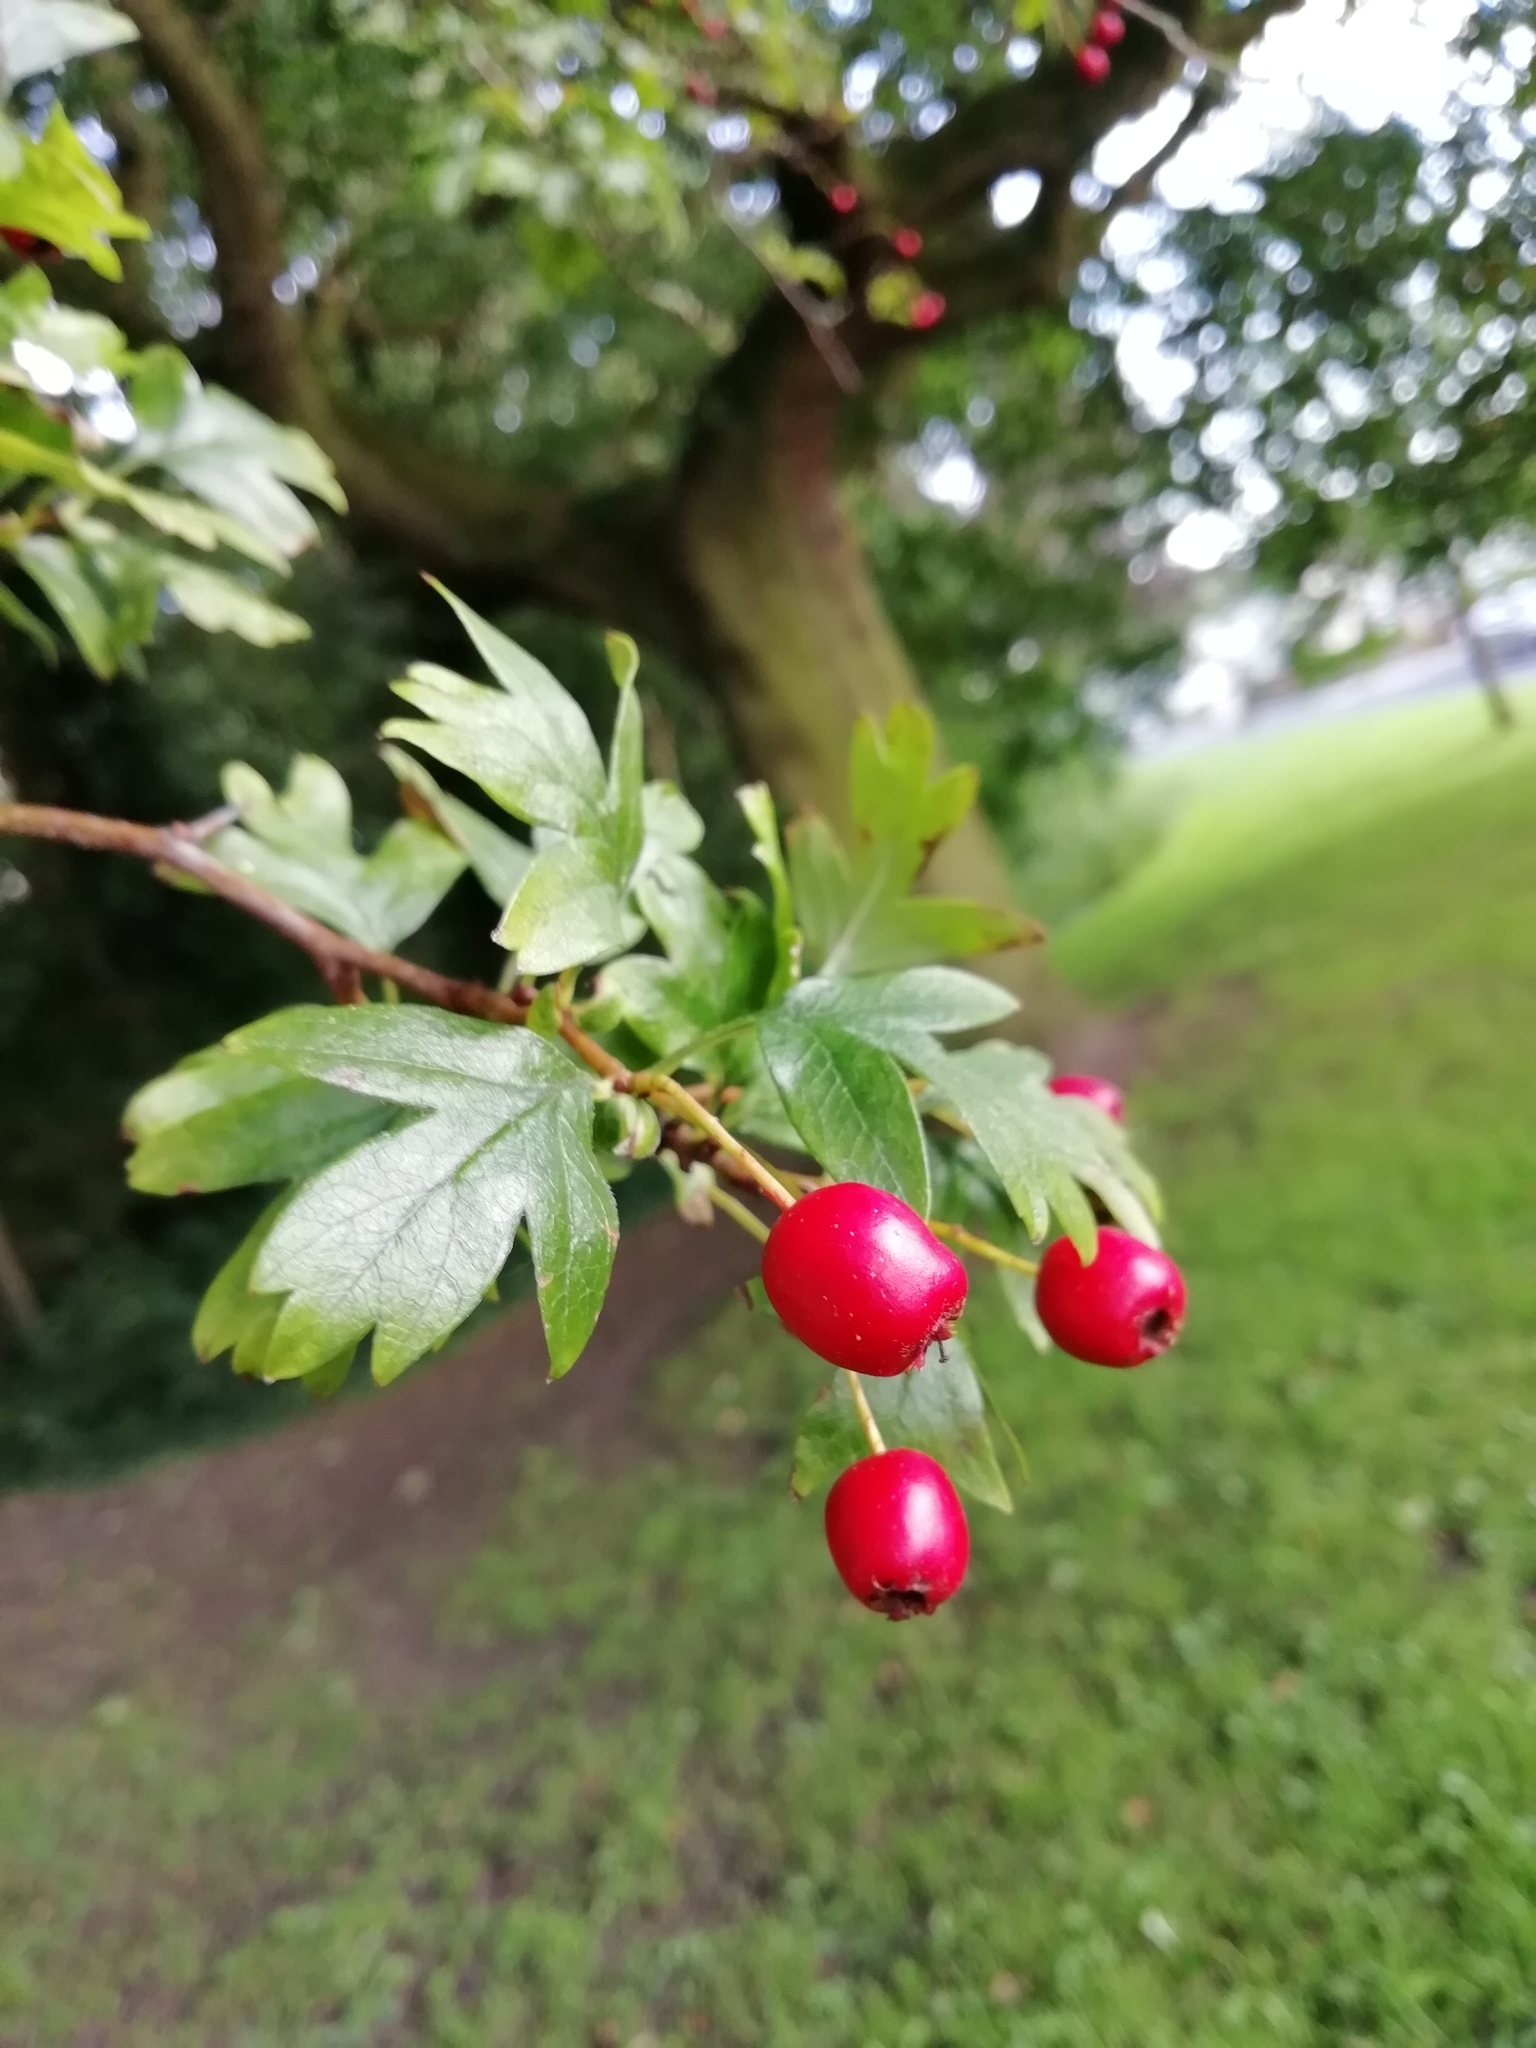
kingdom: Plantae
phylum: Tracheophyta
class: Magnoliopsida
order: Rosales
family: Rosaceae
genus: Crataegus
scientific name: Crataegus monogyna
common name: Hawthorn
